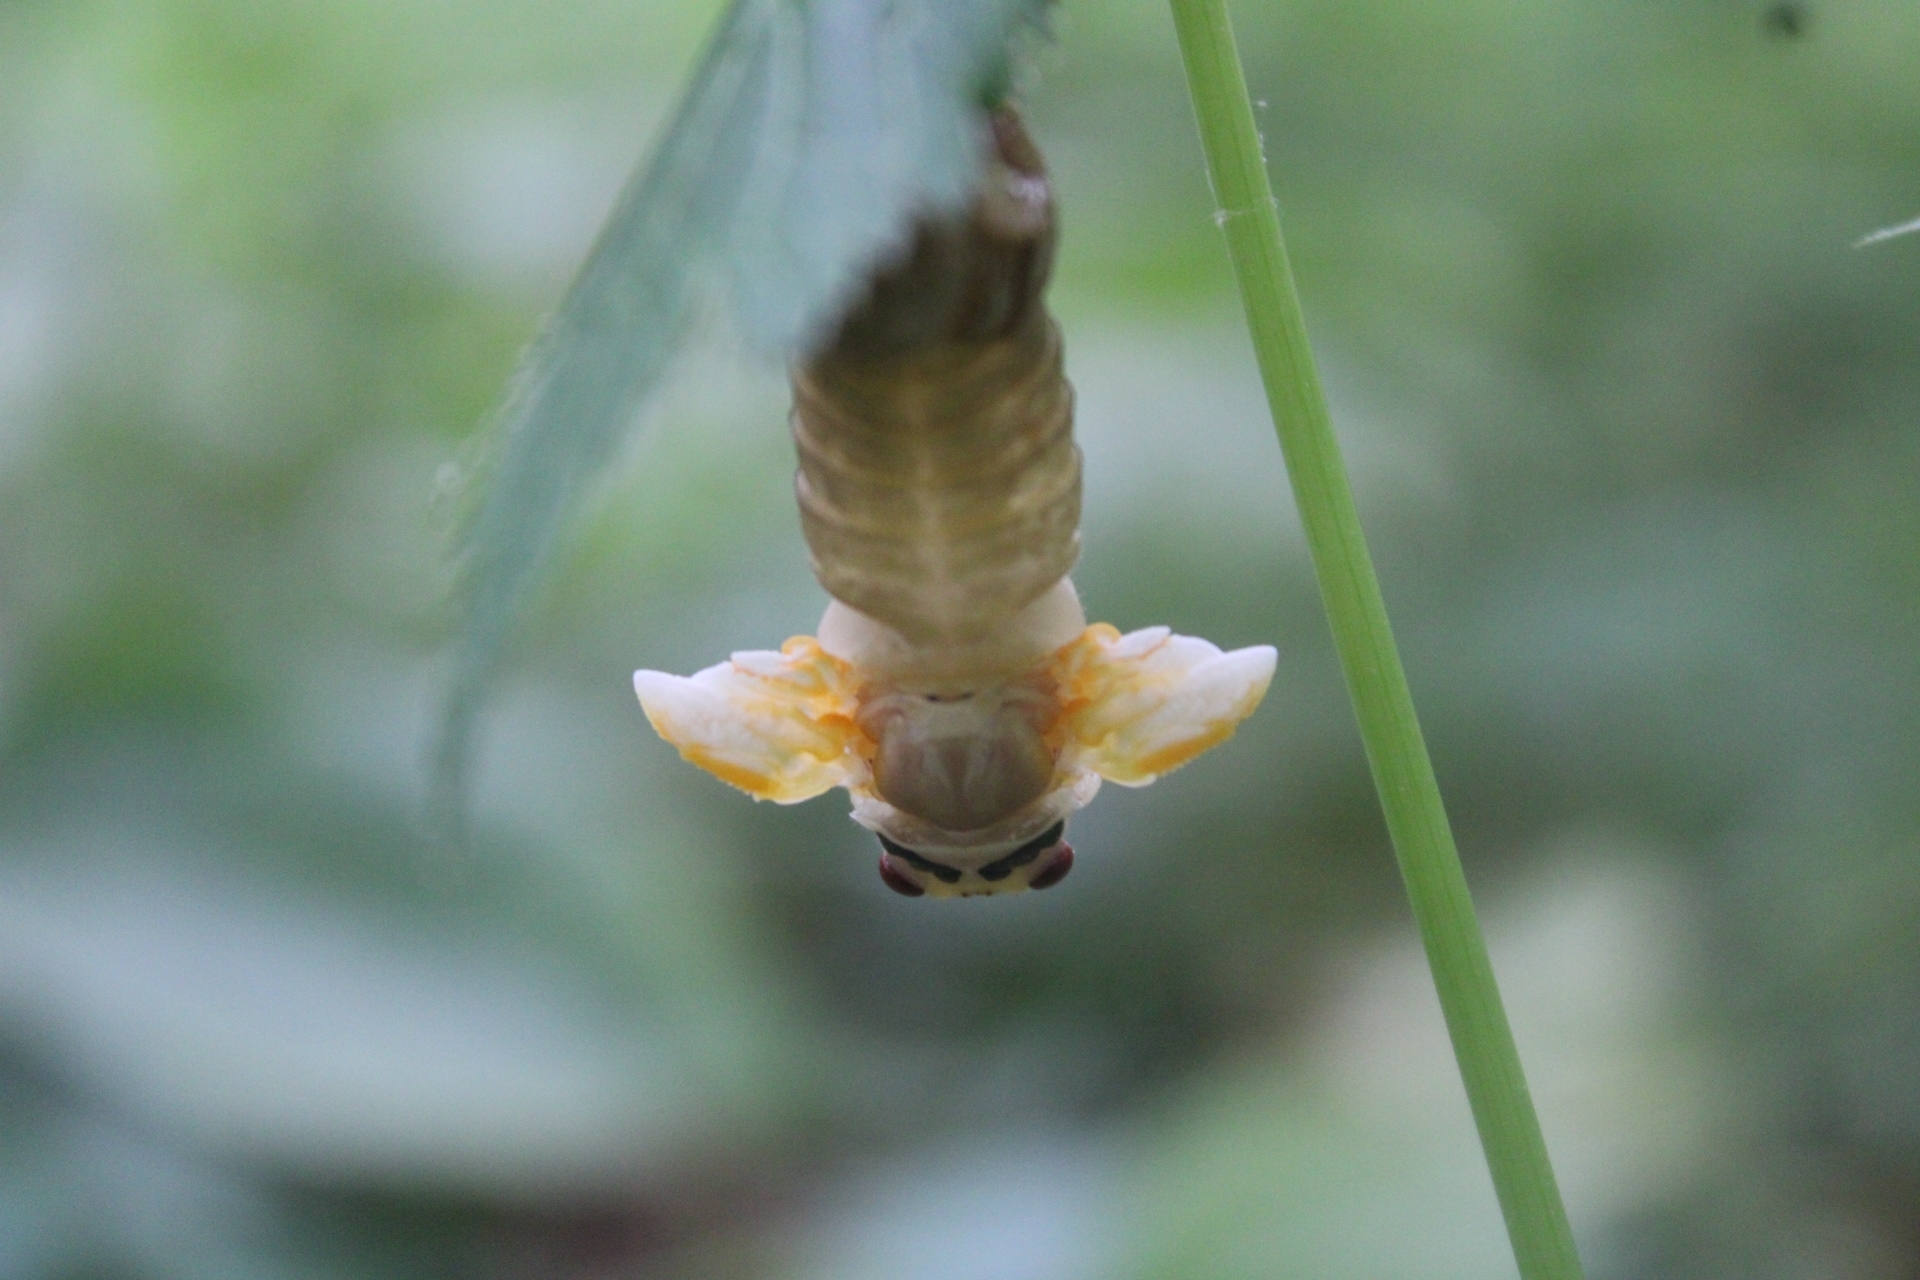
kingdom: Animalia
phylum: Arthropoda
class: Insecta
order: Hemiptera
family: Cicadidae
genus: Magicicada
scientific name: Magicicada
